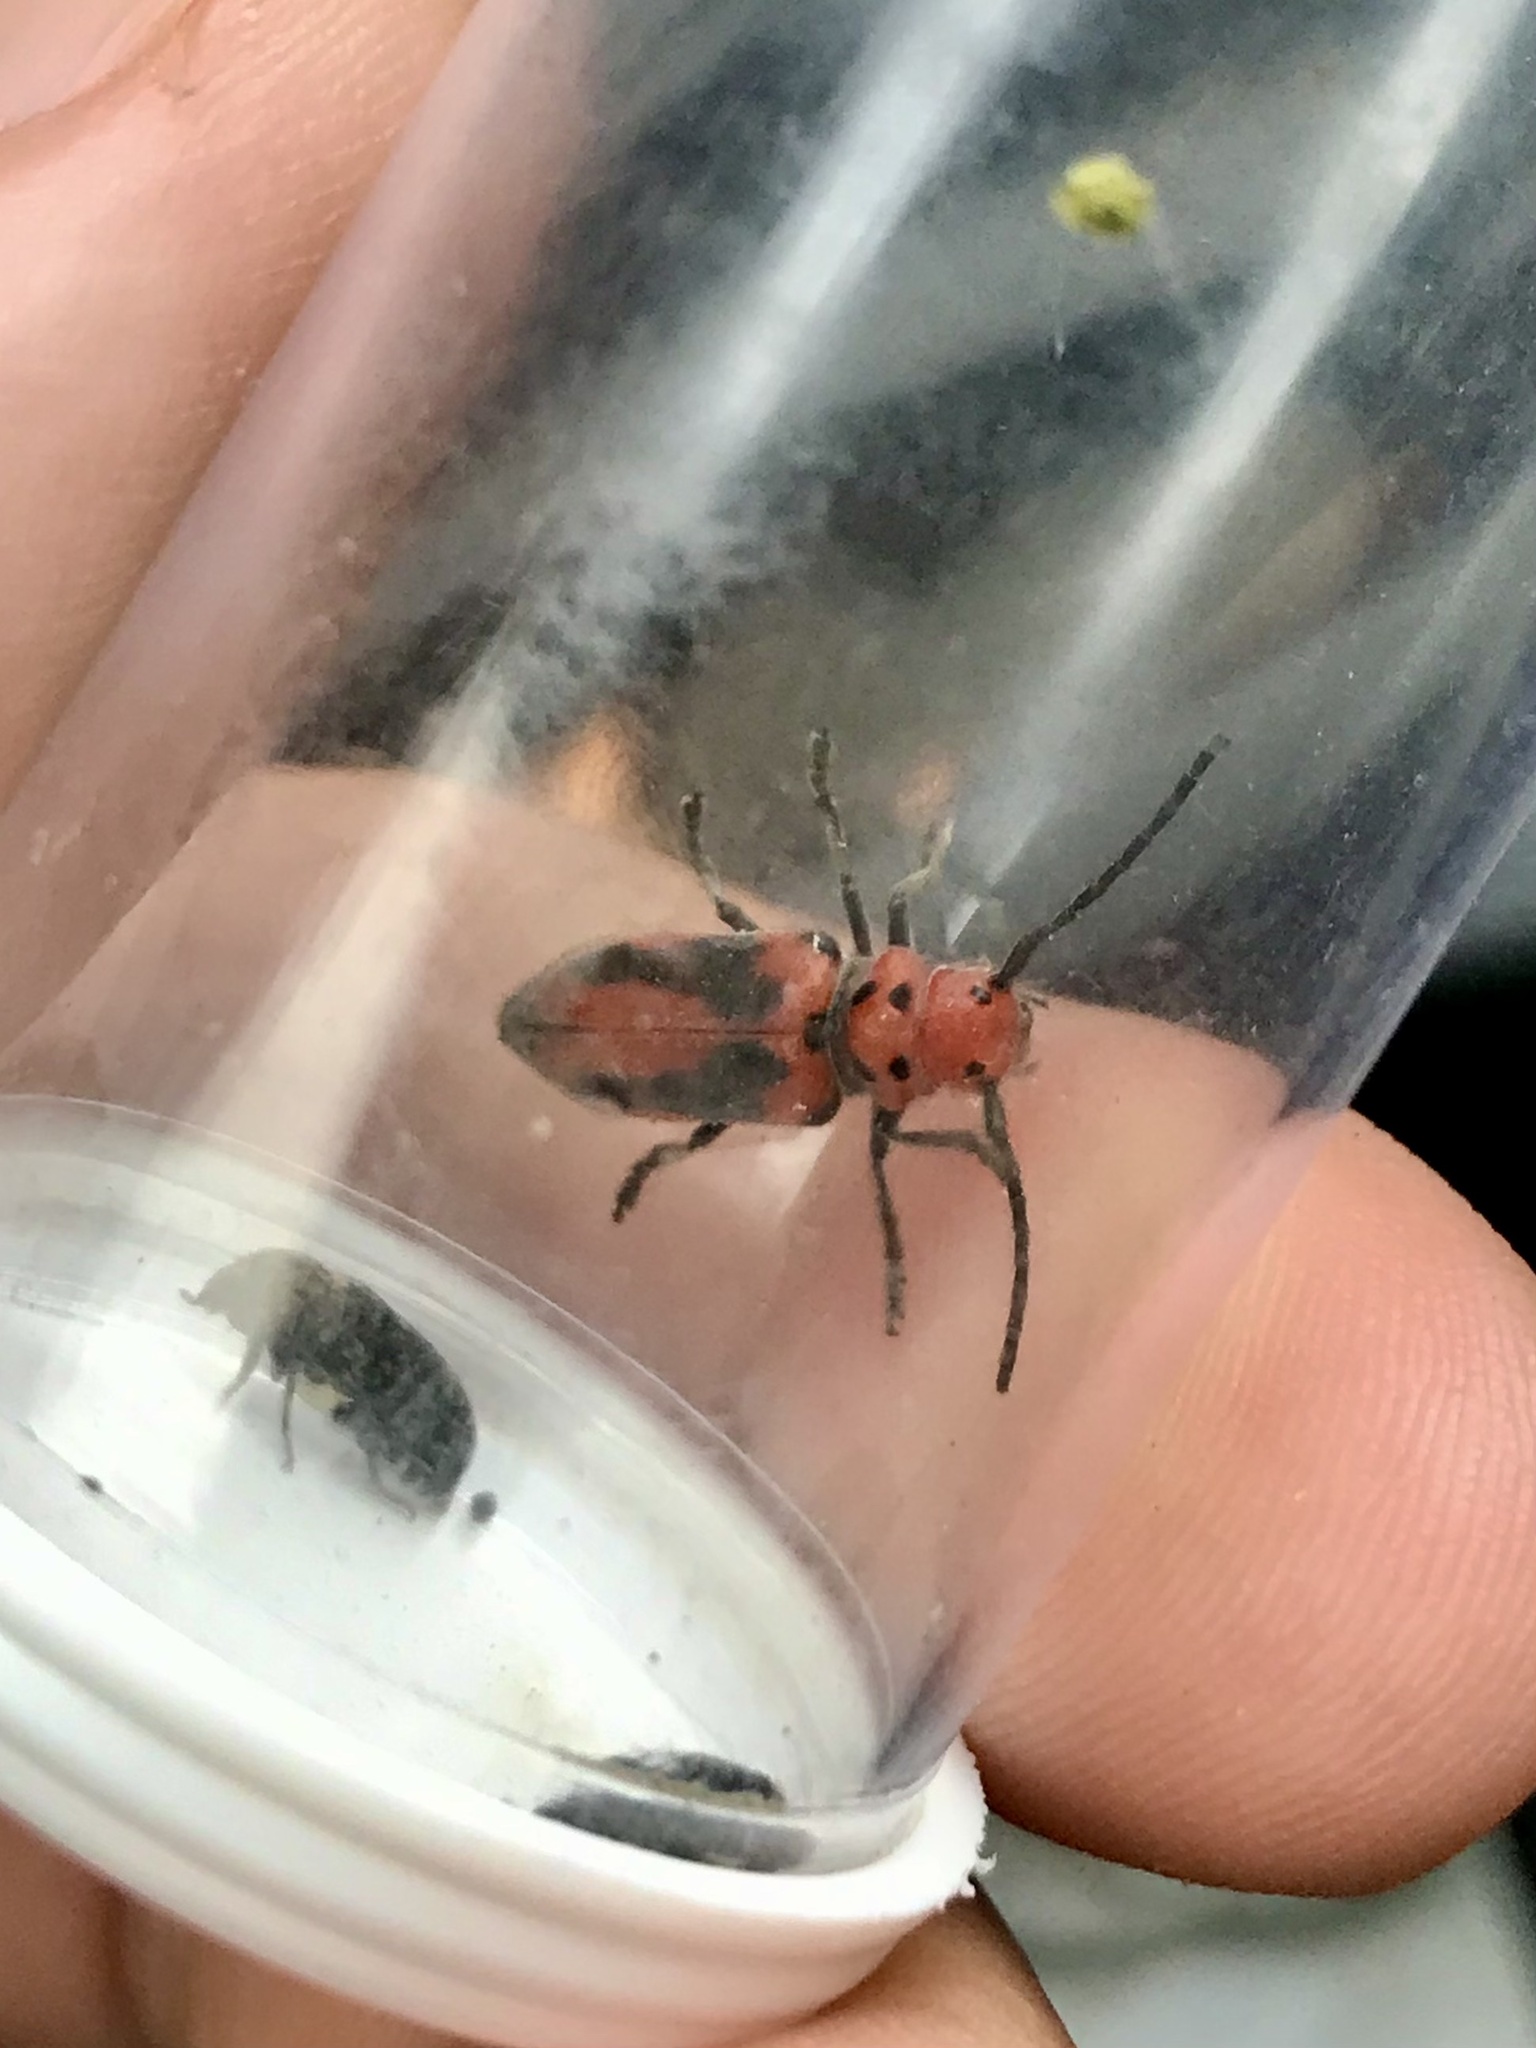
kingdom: Animalia
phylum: Arthropoda
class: Insecta
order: Coleoptera
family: Cerambycidae
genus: Tetraopes
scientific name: Tetraopes tetrophthalmus
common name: Red milkweed beetle
